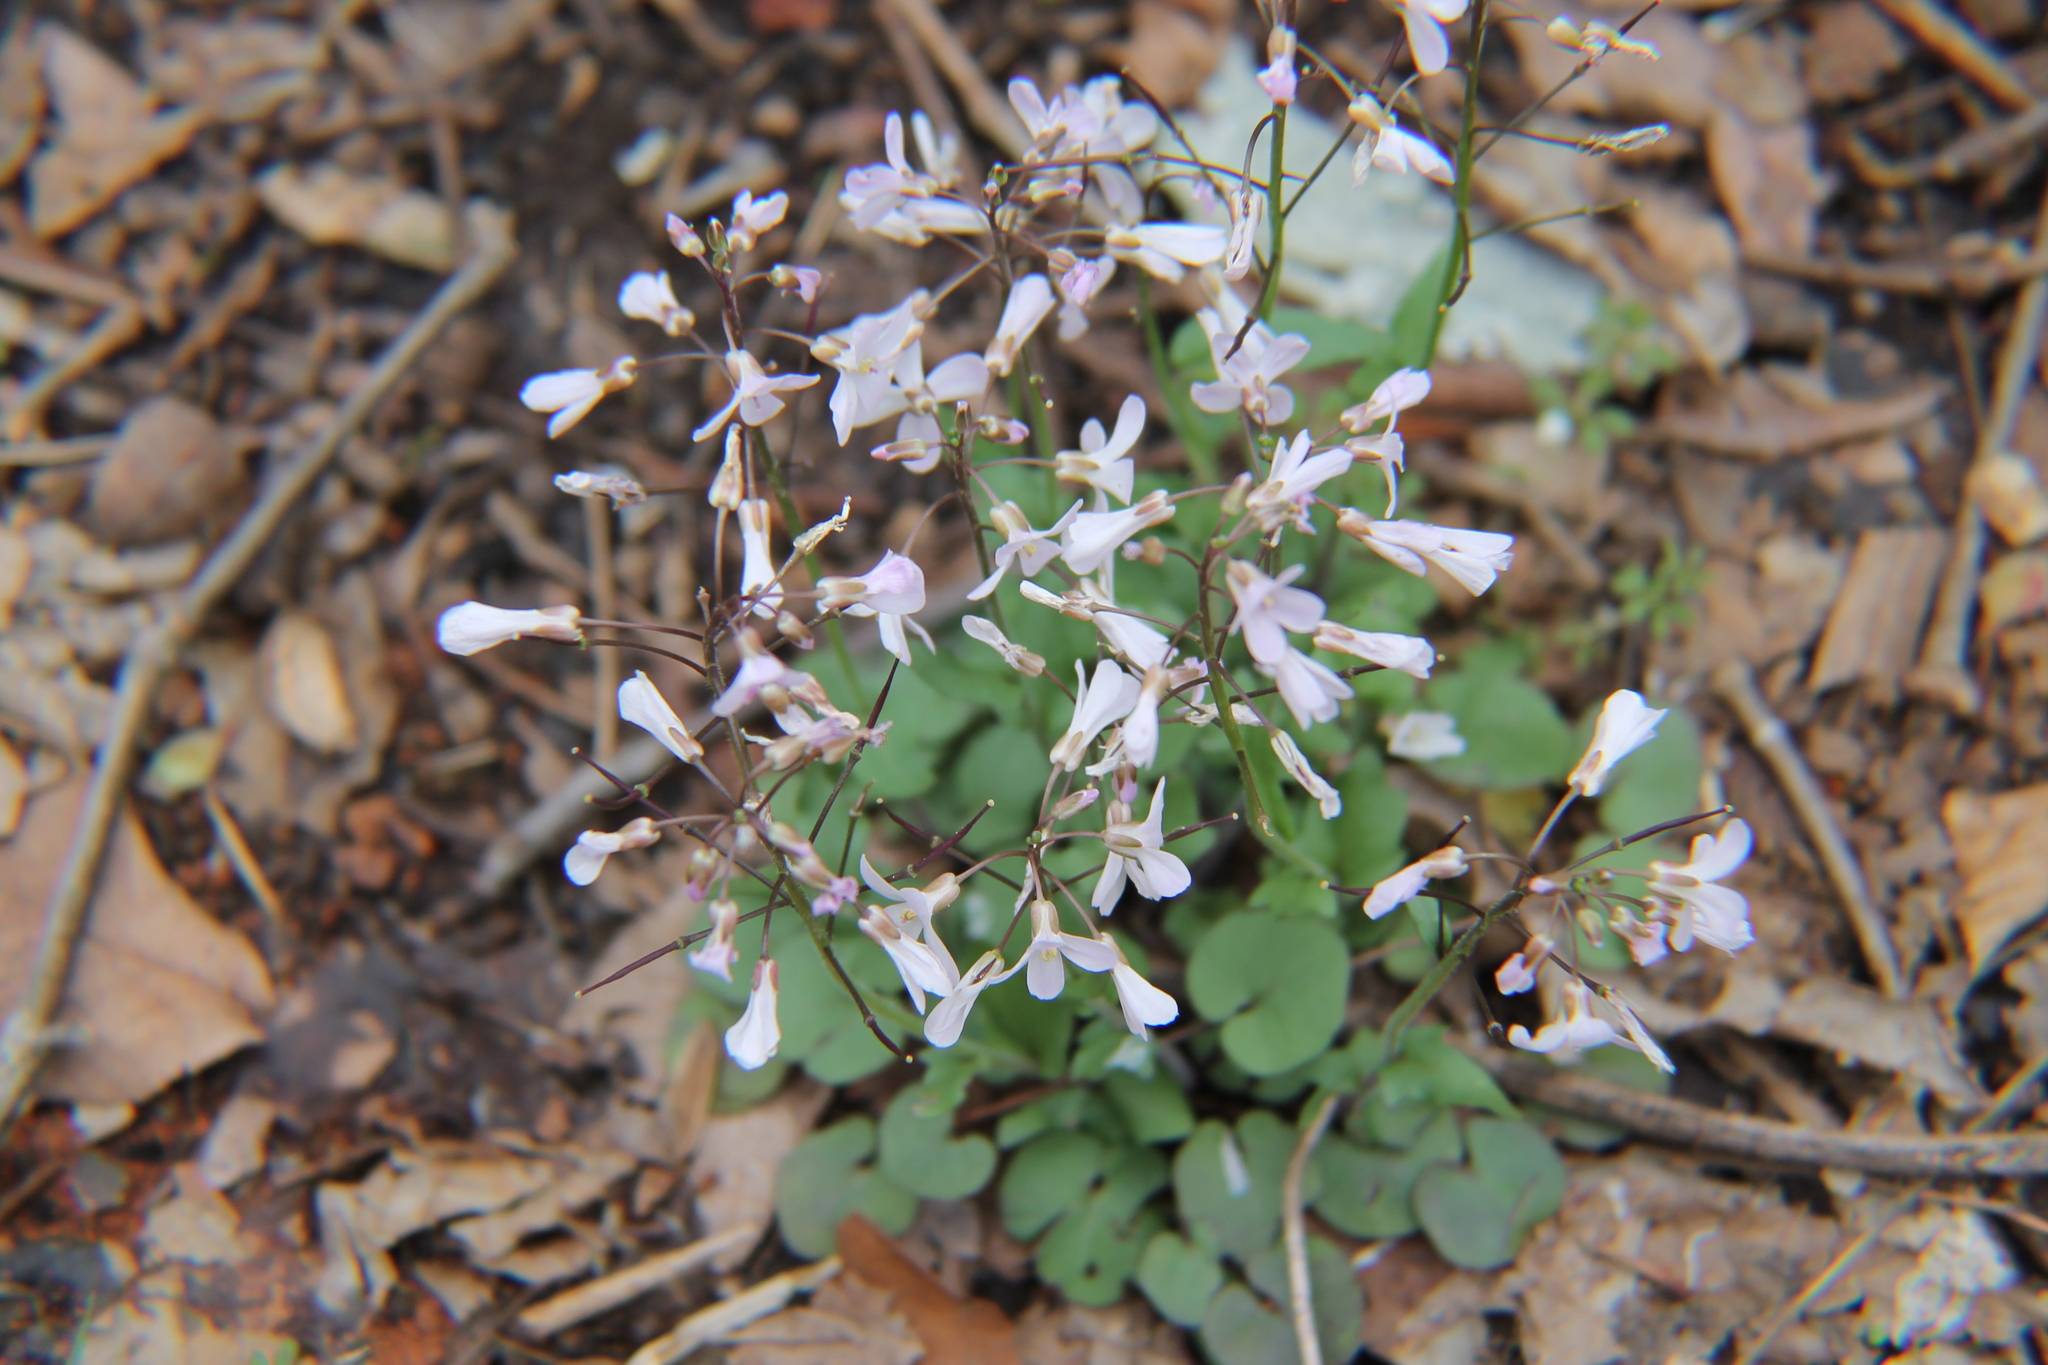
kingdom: Plantae
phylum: Tracheophyta
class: Magnoliopsida
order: Brassicales
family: Brassicaceae
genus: Cardamine
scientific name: Cardamine douglassii
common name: Purple cress
